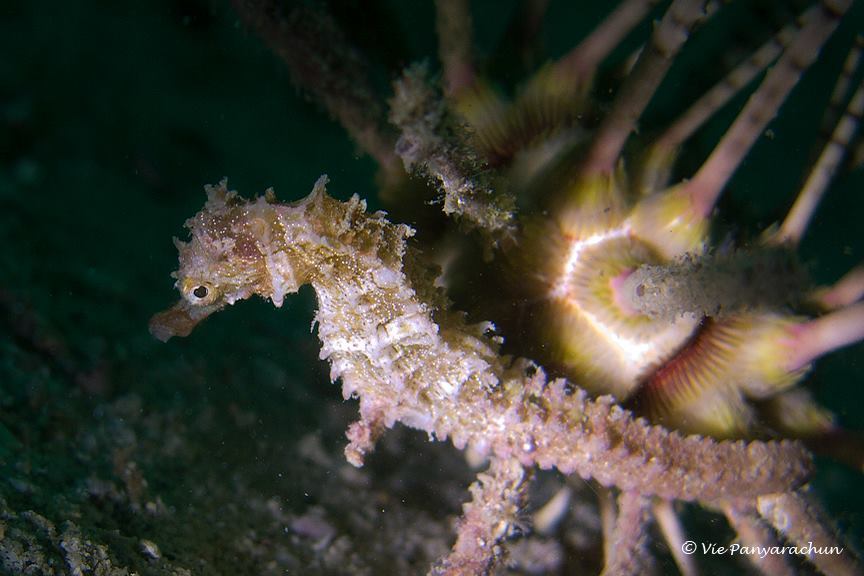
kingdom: Animalia
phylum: Chordata
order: Syngnathiformes
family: Syngnathidae
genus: Hippocampus
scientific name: Hippocampus spinosissimus
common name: Hedgehog seahorse
